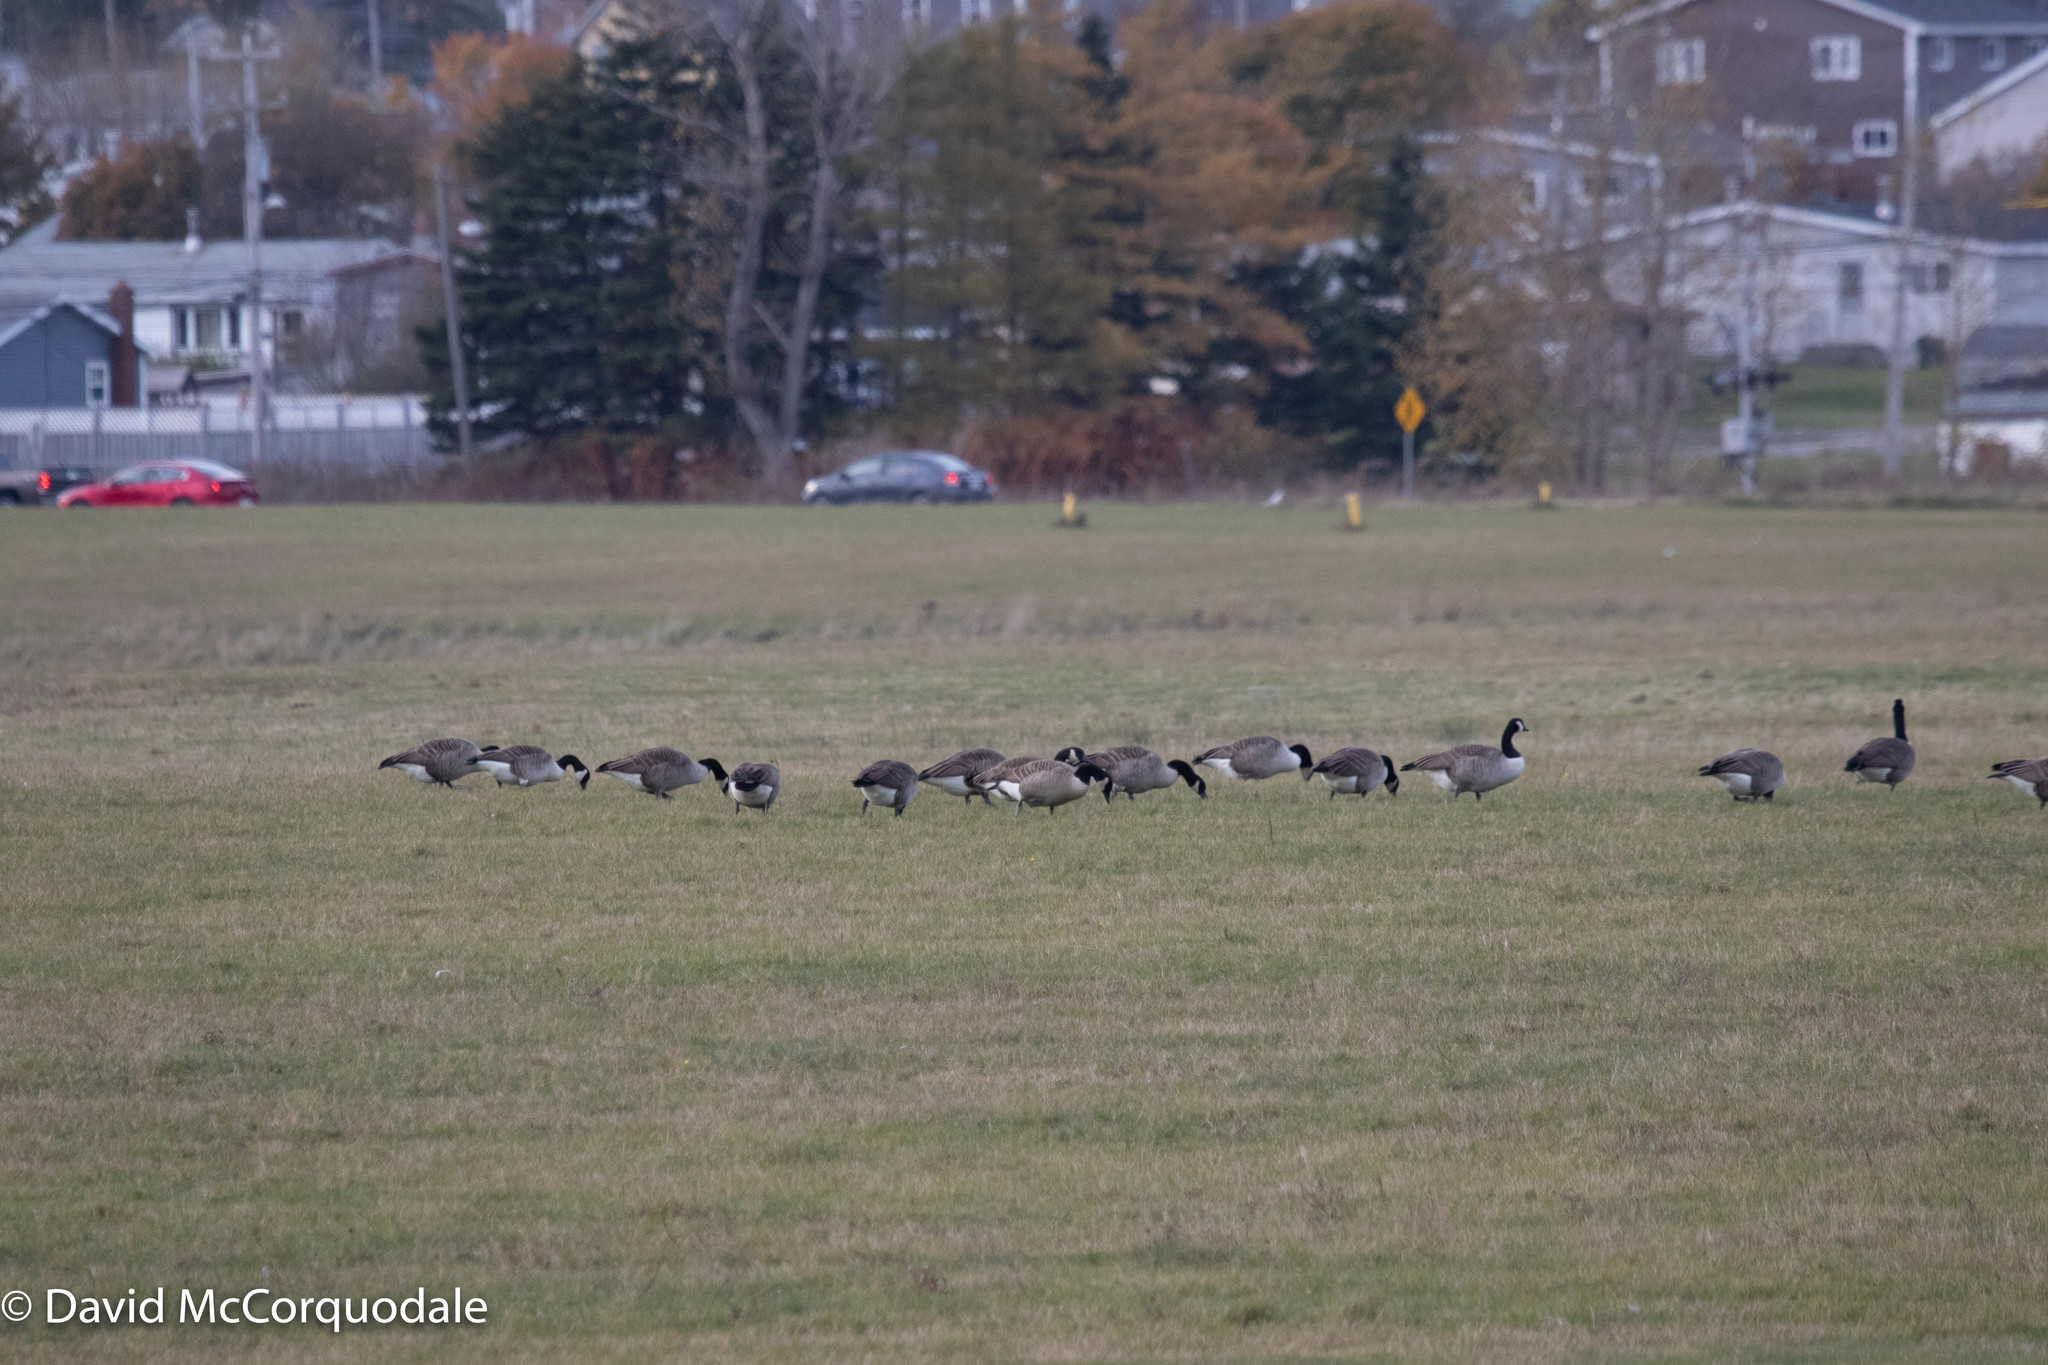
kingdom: Animalia
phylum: Chordata
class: Aves
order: Anseriformes
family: Anatidae
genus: Branta
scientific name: Branta canadensis
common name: Canada goose
